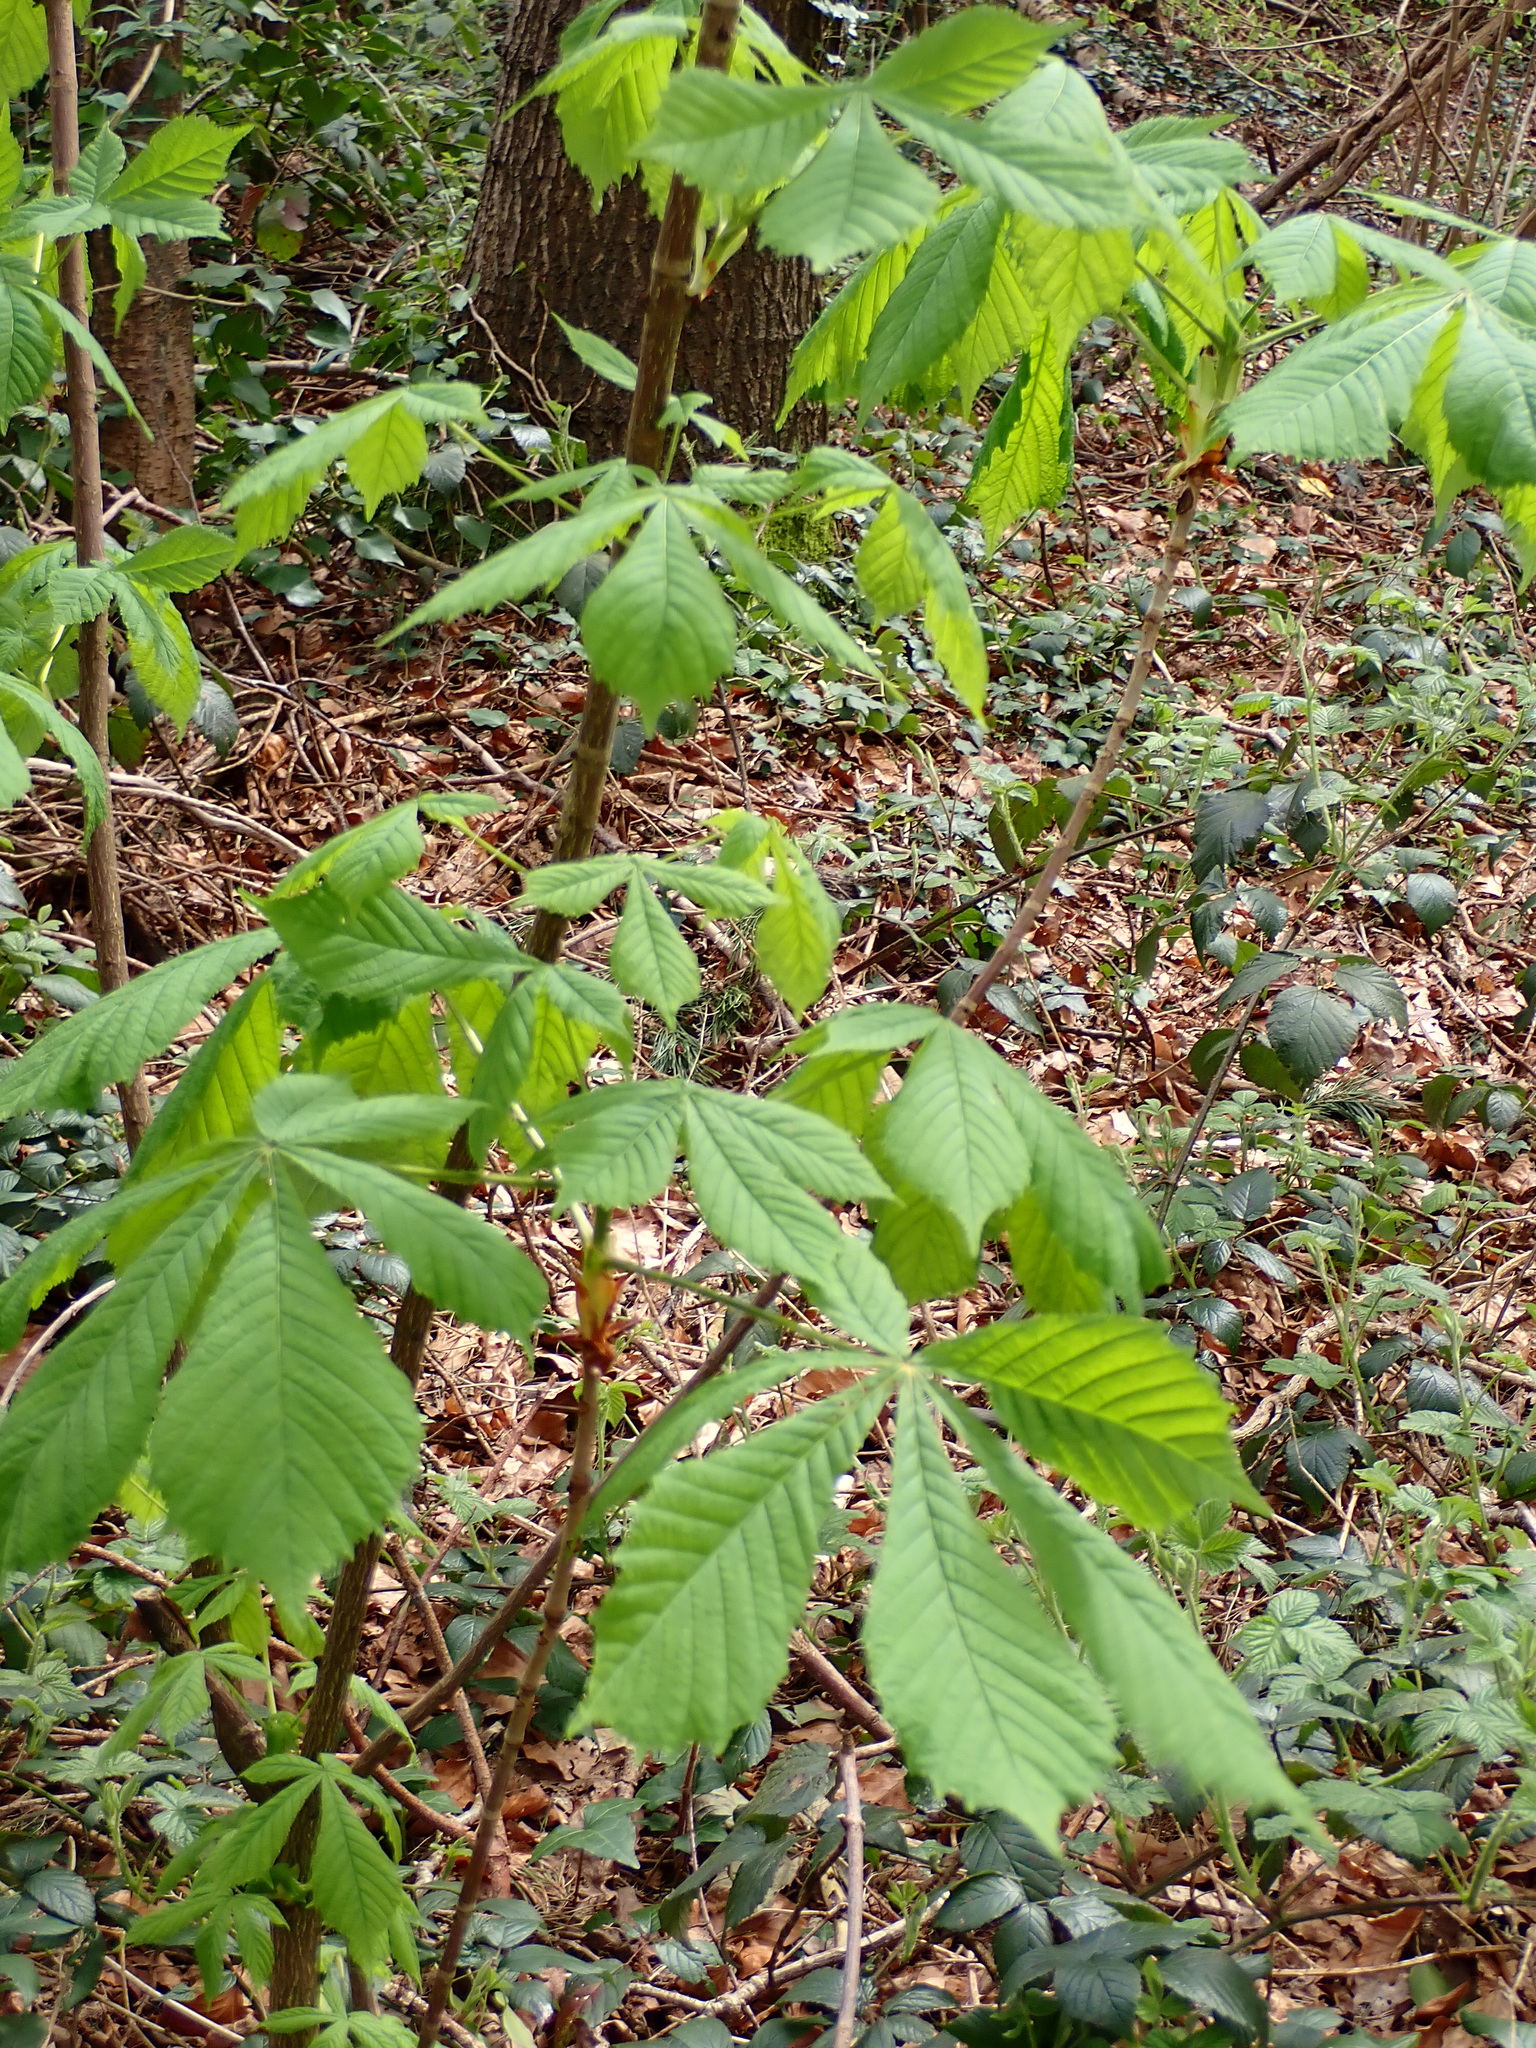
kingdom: Plantae
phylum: Tracheophyta
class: Magnoliopsida
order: Sapindales
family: Sapindaceae
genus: Aesculus
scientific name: Aesculus hippocastanum
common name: Horse-chestnut
